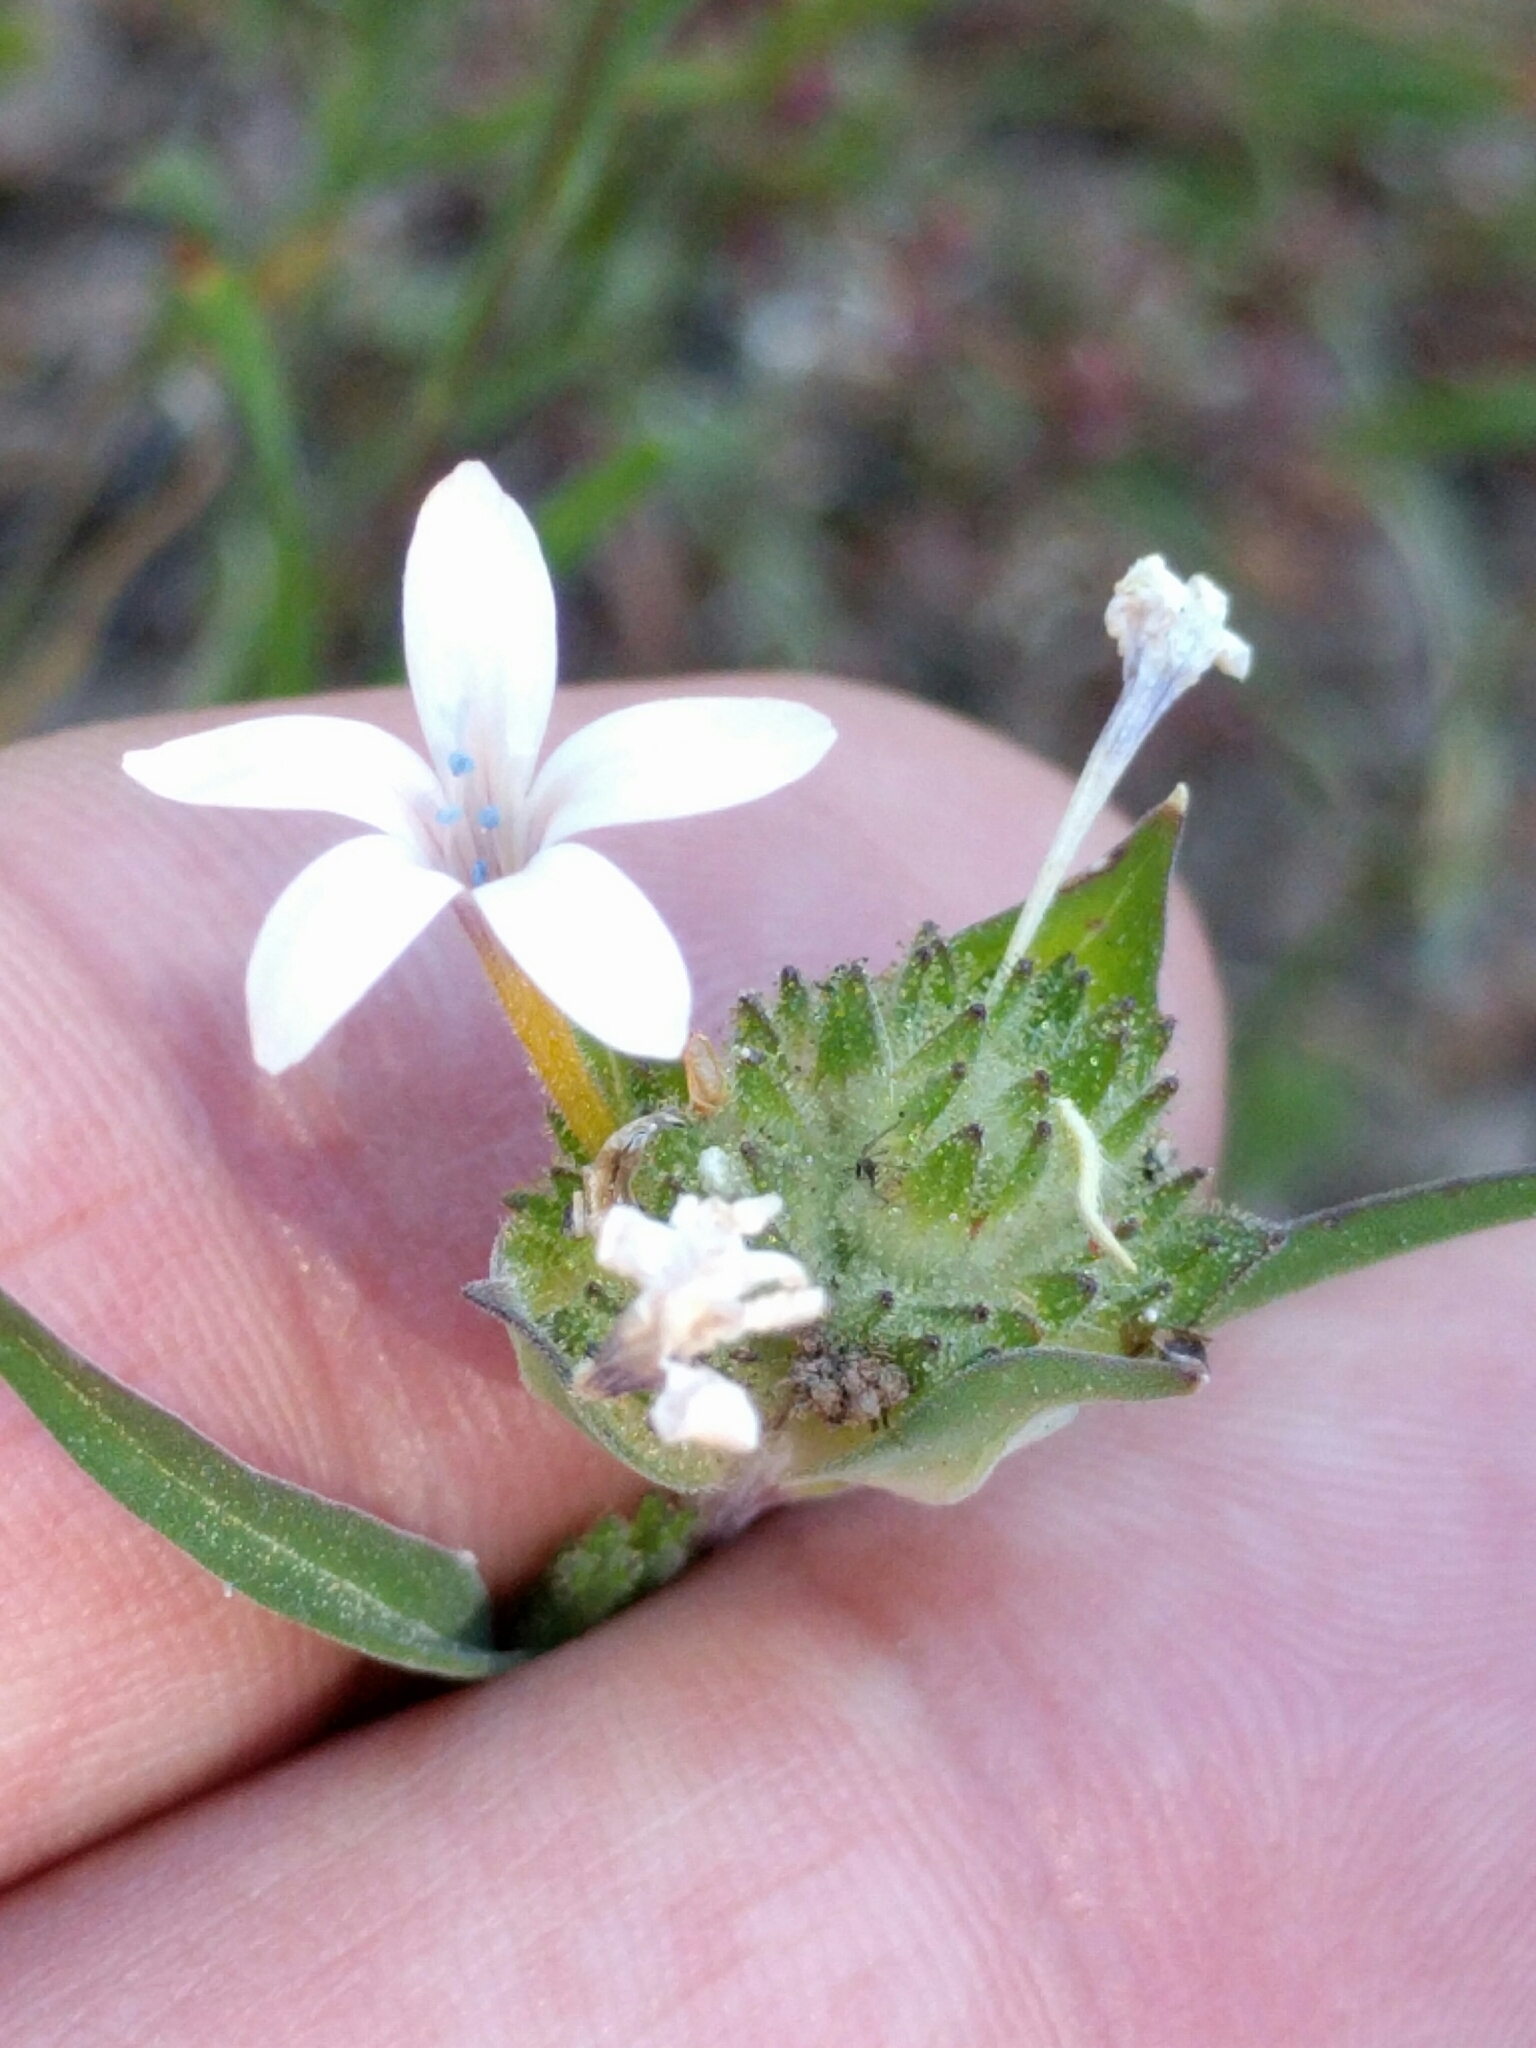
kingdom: Plantae
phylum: Tracheophyta
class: Magnoliopsida
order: Ericales
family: Polemoniaceae
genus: Collomia
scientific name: Collomia grandiflora
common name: California strawflower
